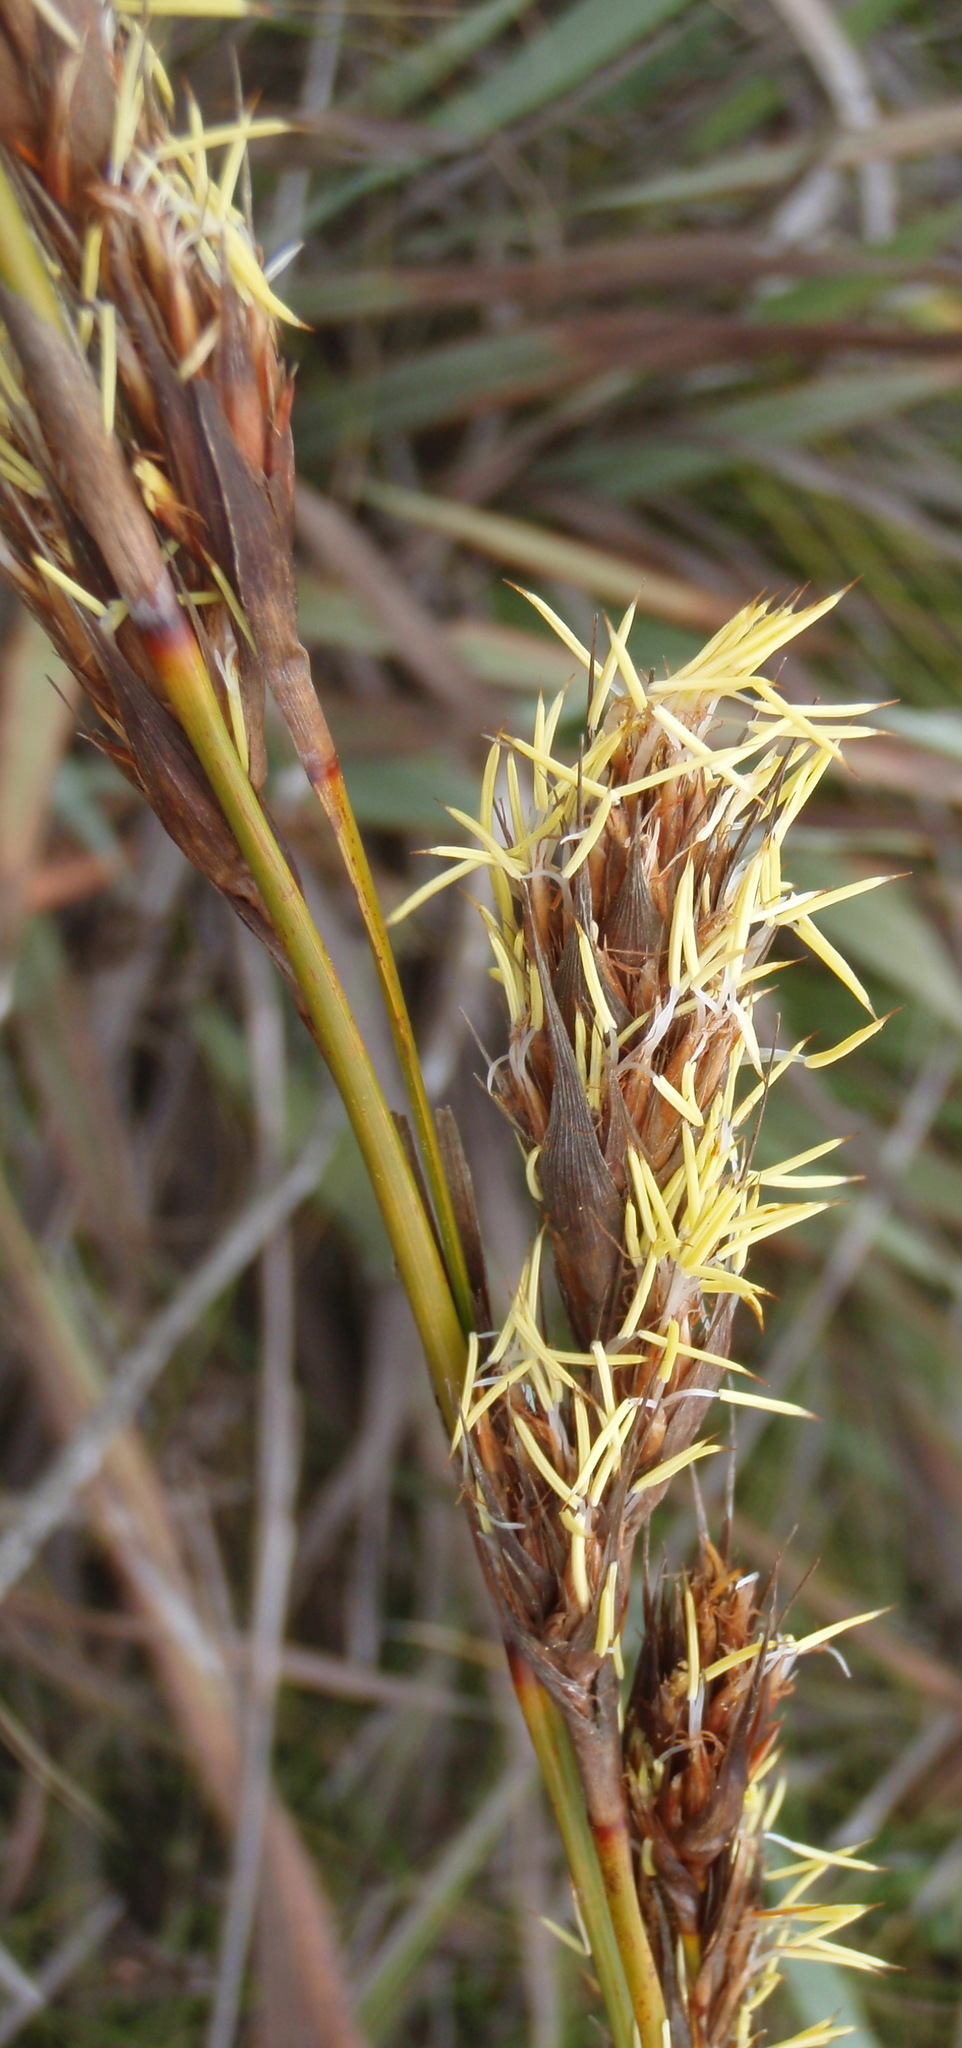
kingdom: Plantae
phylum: Tracheophyta
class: Liliopsida
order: Poales
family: Cyperaceae
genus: Tetraria
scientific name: Tetraria bromoides
